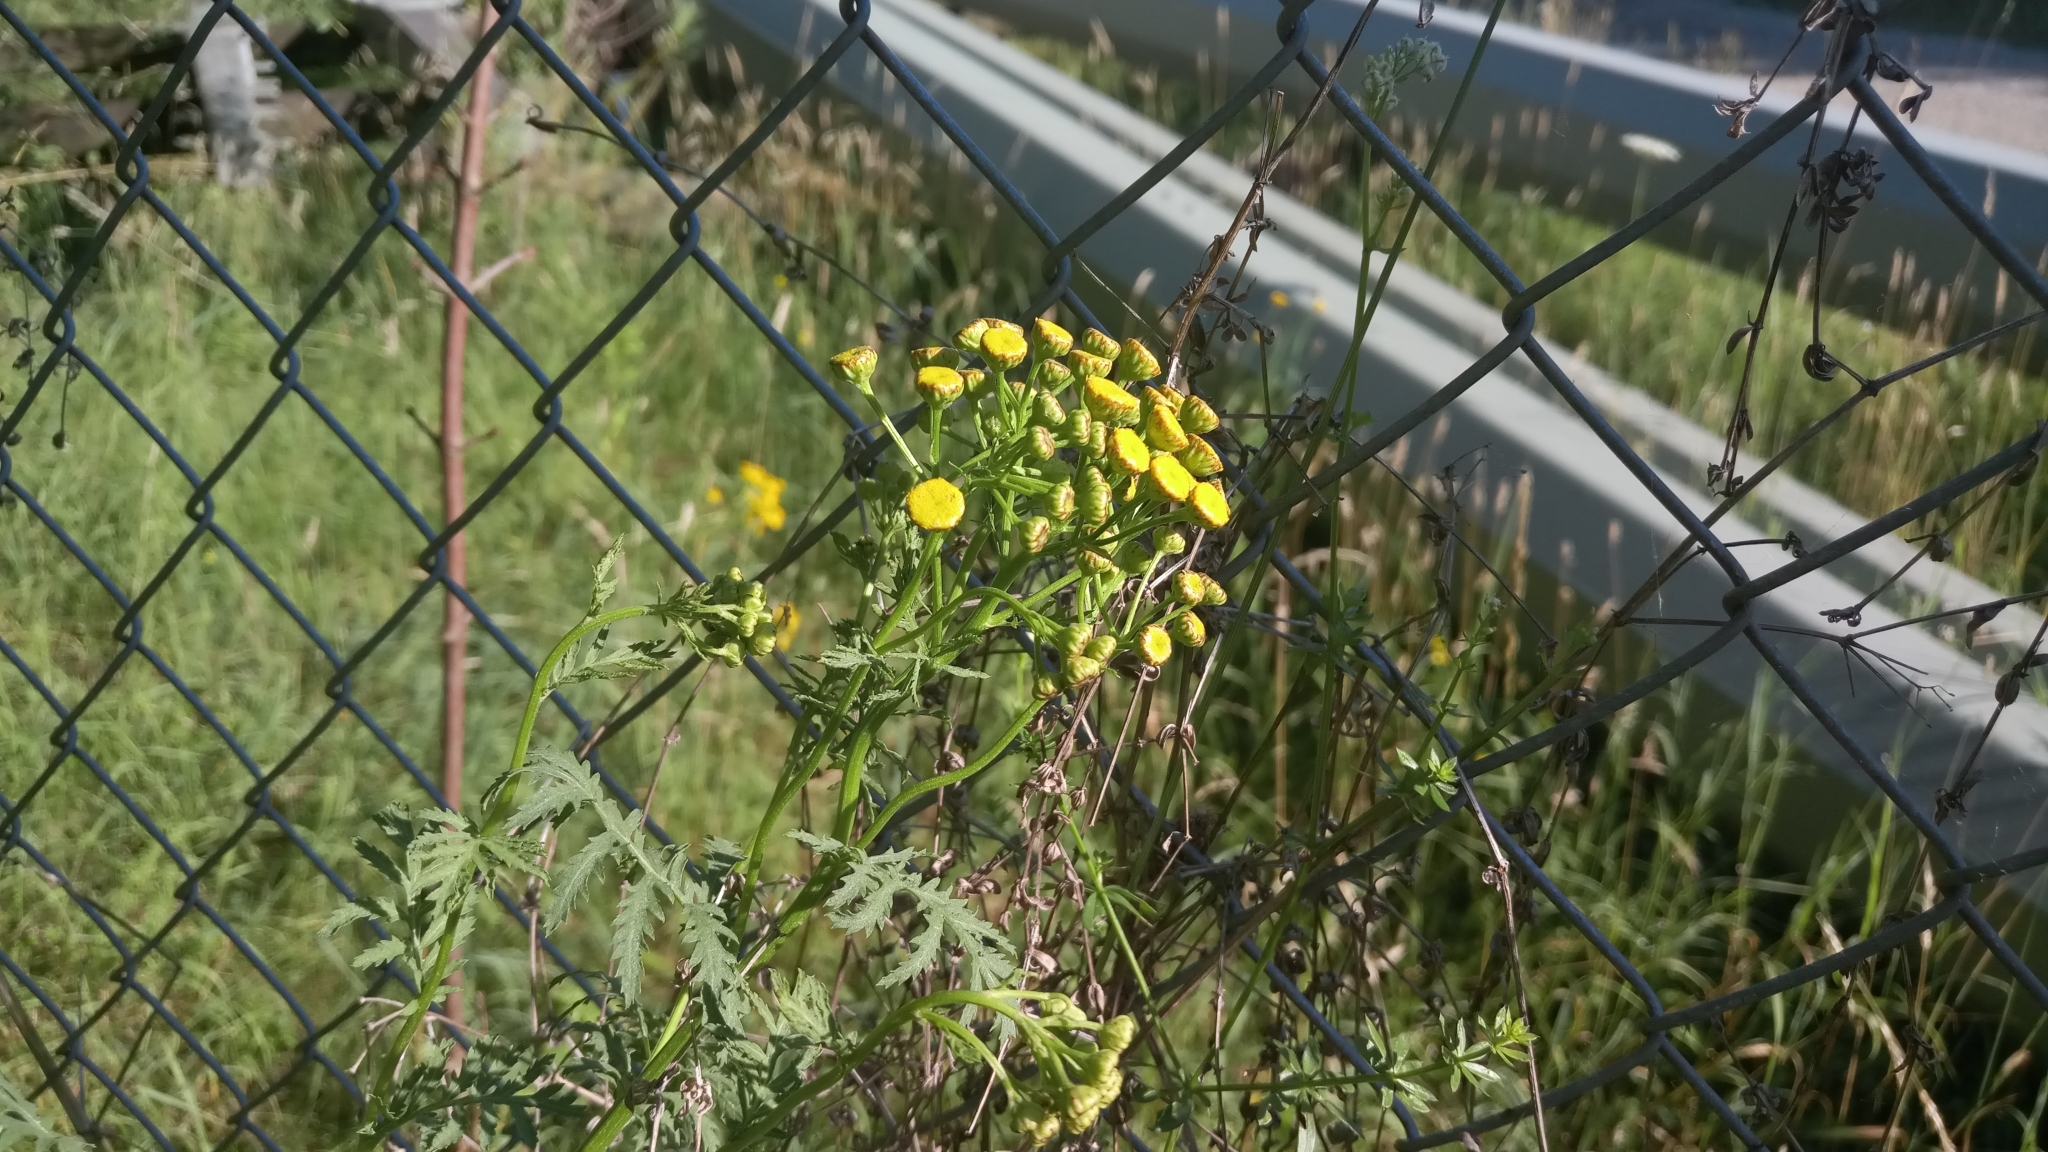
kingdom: Plantae
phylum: Tracheophyta
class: Magnoliopsida
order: Asterales
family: Asteraceae
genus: Tanacetum
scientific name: Tanacetum vulgare
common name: Common tansy
